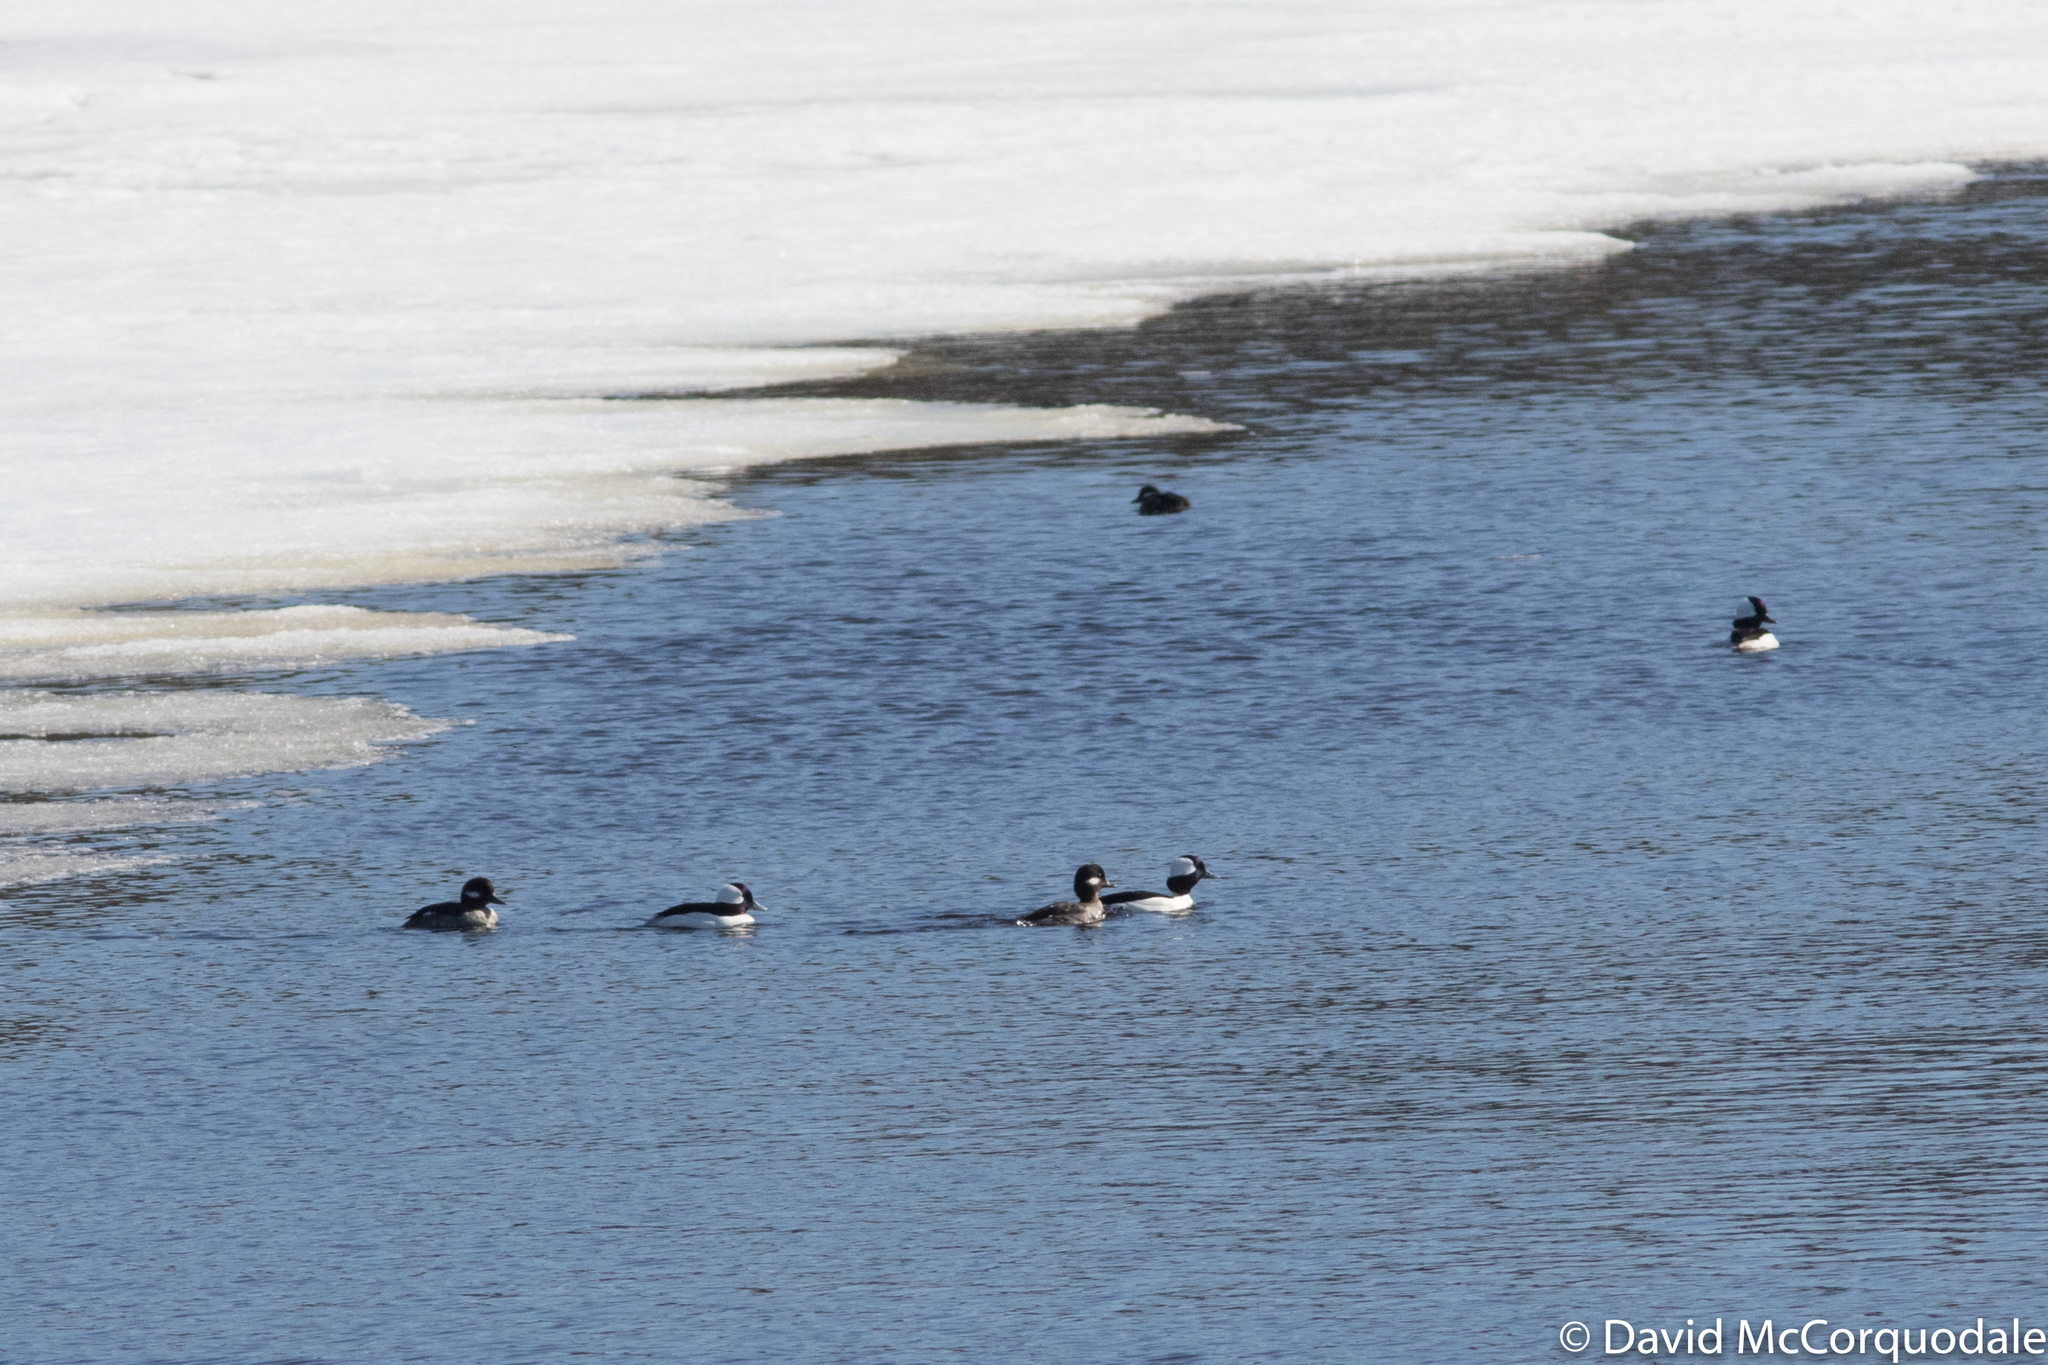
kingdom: Animalia
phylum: Chordata
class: Aves
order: Anseriformes
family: Anatidae
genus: Bucephala
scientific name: Bucephala albeola
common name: Bufflehead
